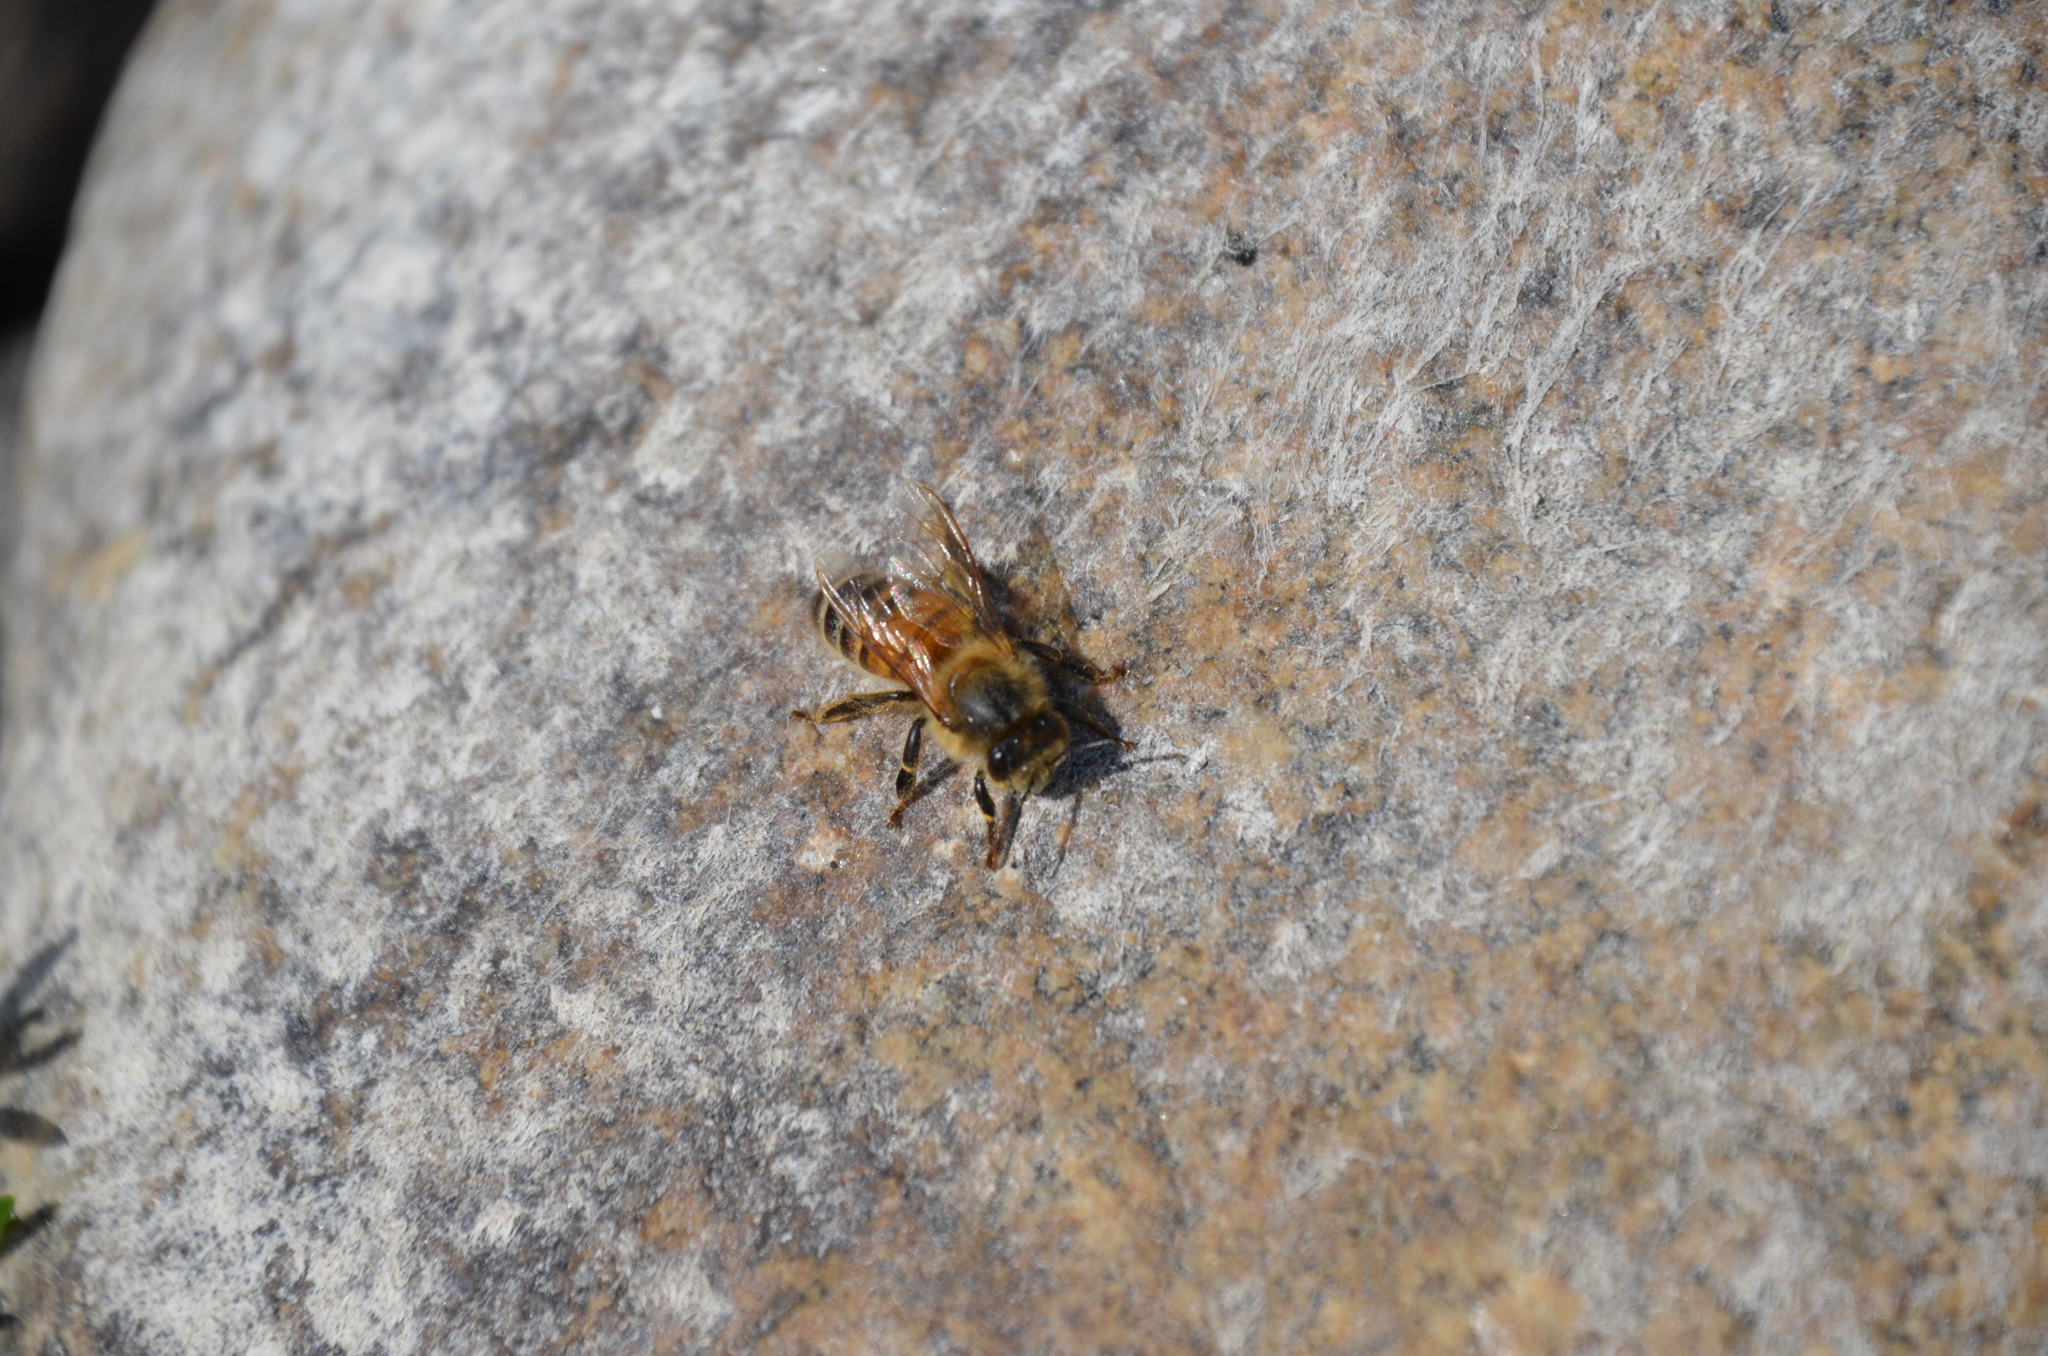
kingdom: Animalia
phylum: Arthropoda
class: Insecta
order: Hymenoptera
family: Apidae
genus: Apis
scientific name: Apis mellifera
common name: Honey bee
